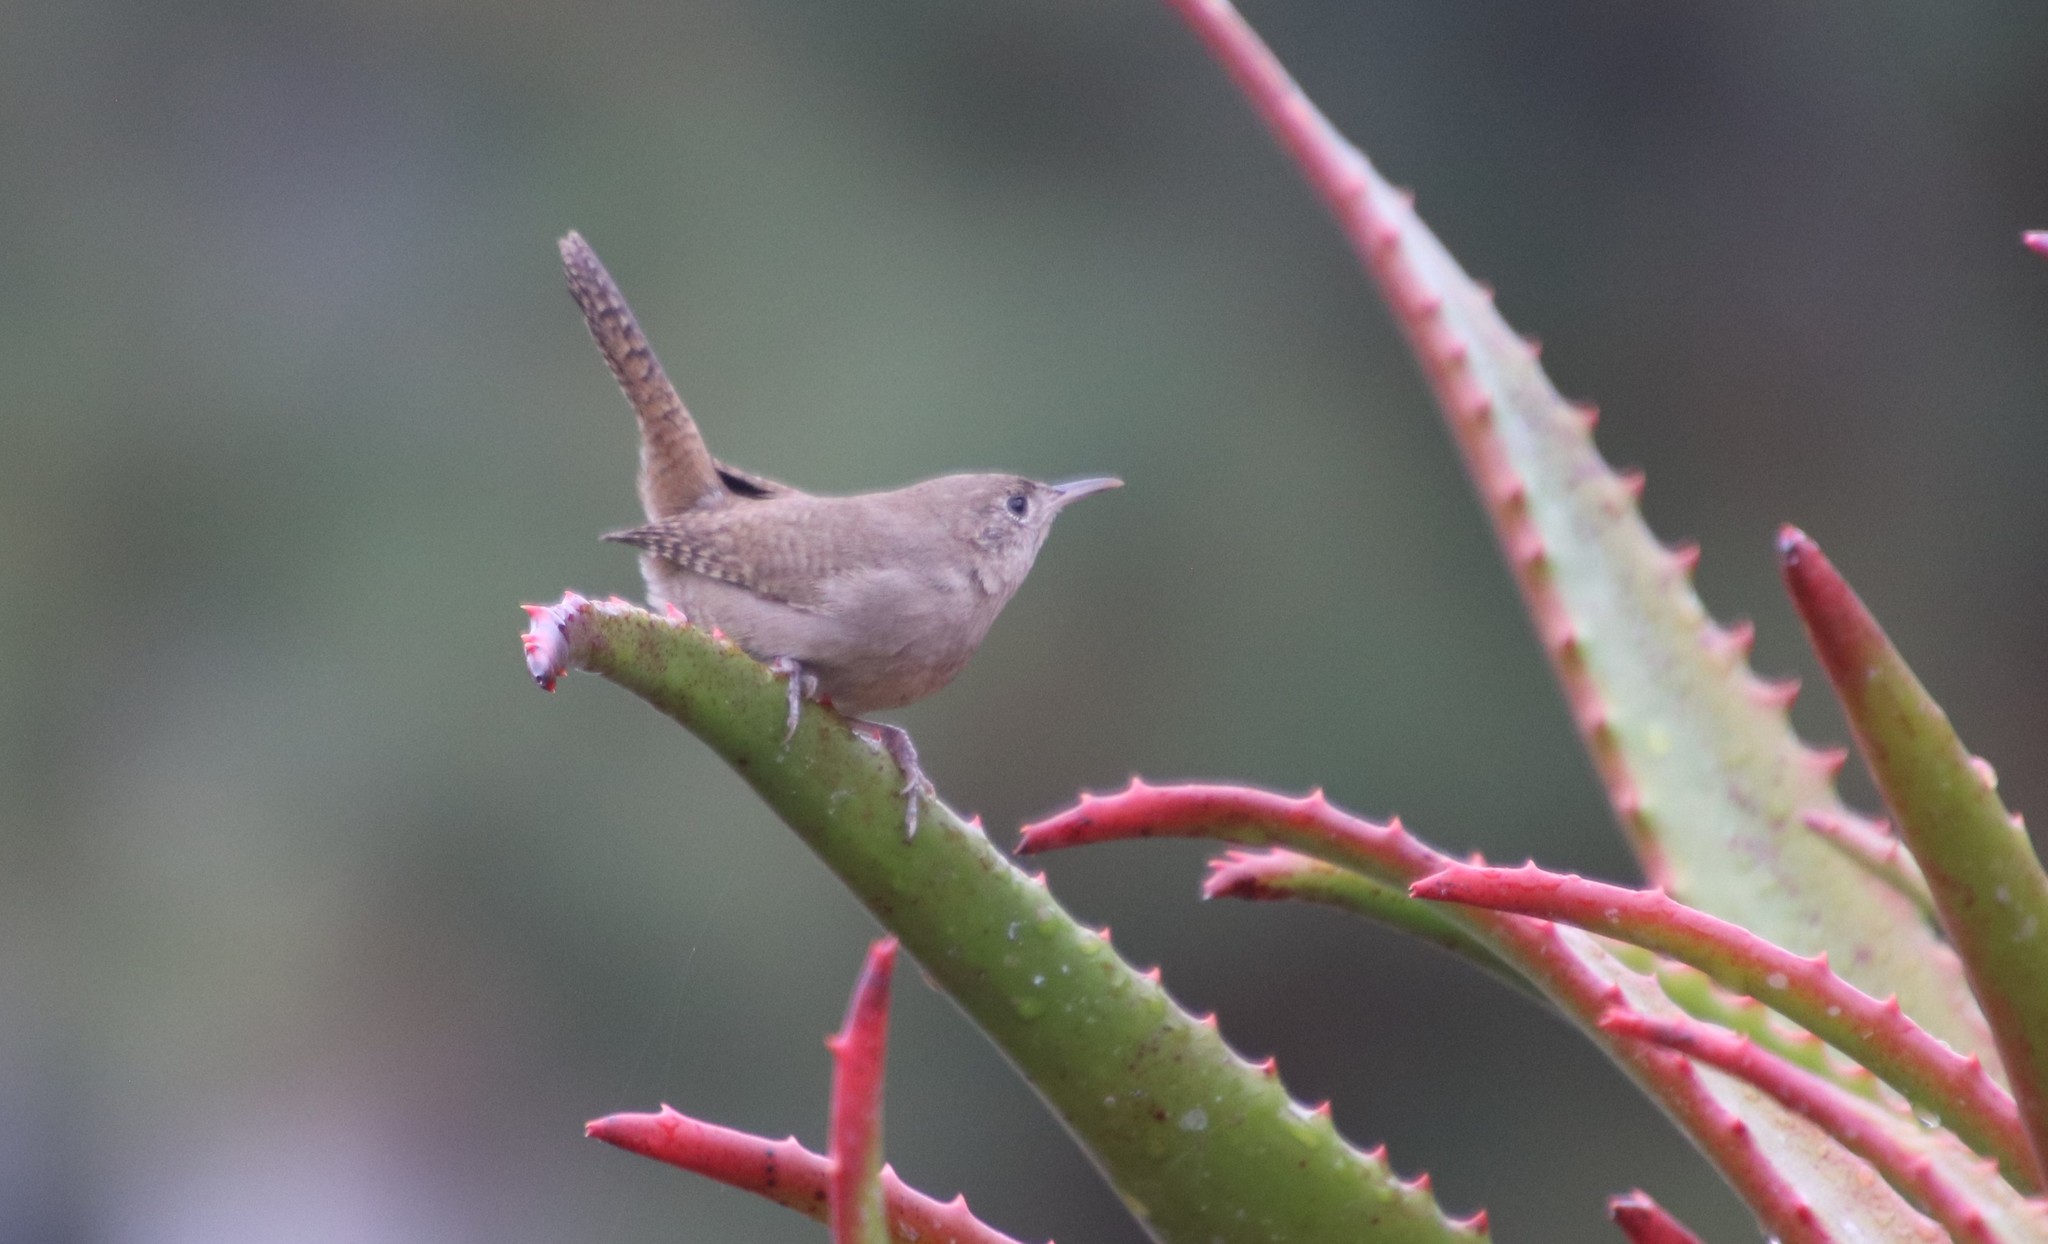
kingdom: Animalia
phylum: Chordata
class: Aves
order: Passeriformes
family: Troglodytidae
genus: Troglodytes
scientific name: Troglodytes aedon
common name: House wren
